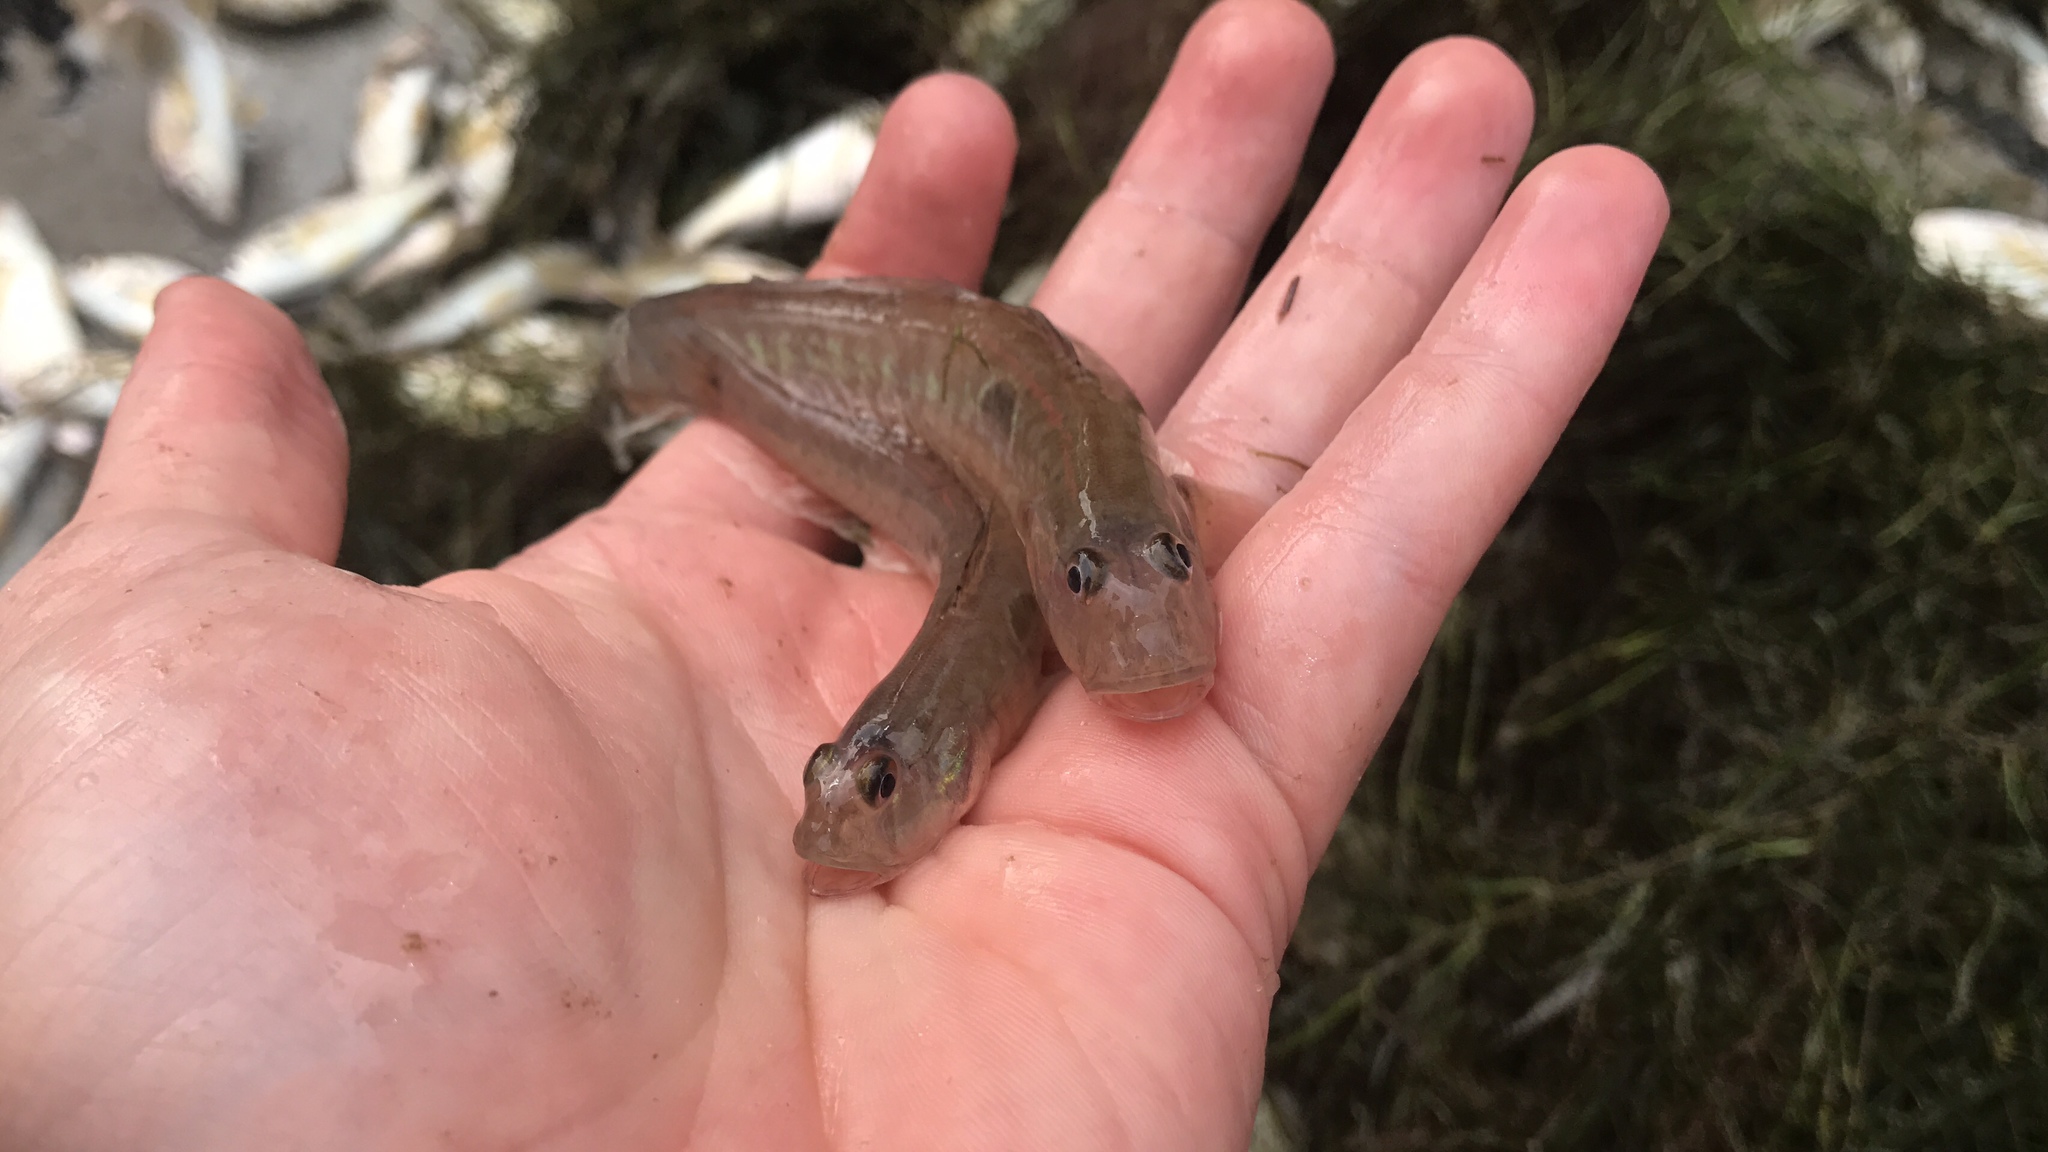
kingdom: Animalia
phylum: Chordata
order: Perciformes
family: Gobiidae
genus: Gobionellus
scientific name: Gobionellus oceanicus
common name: Highfin goby
